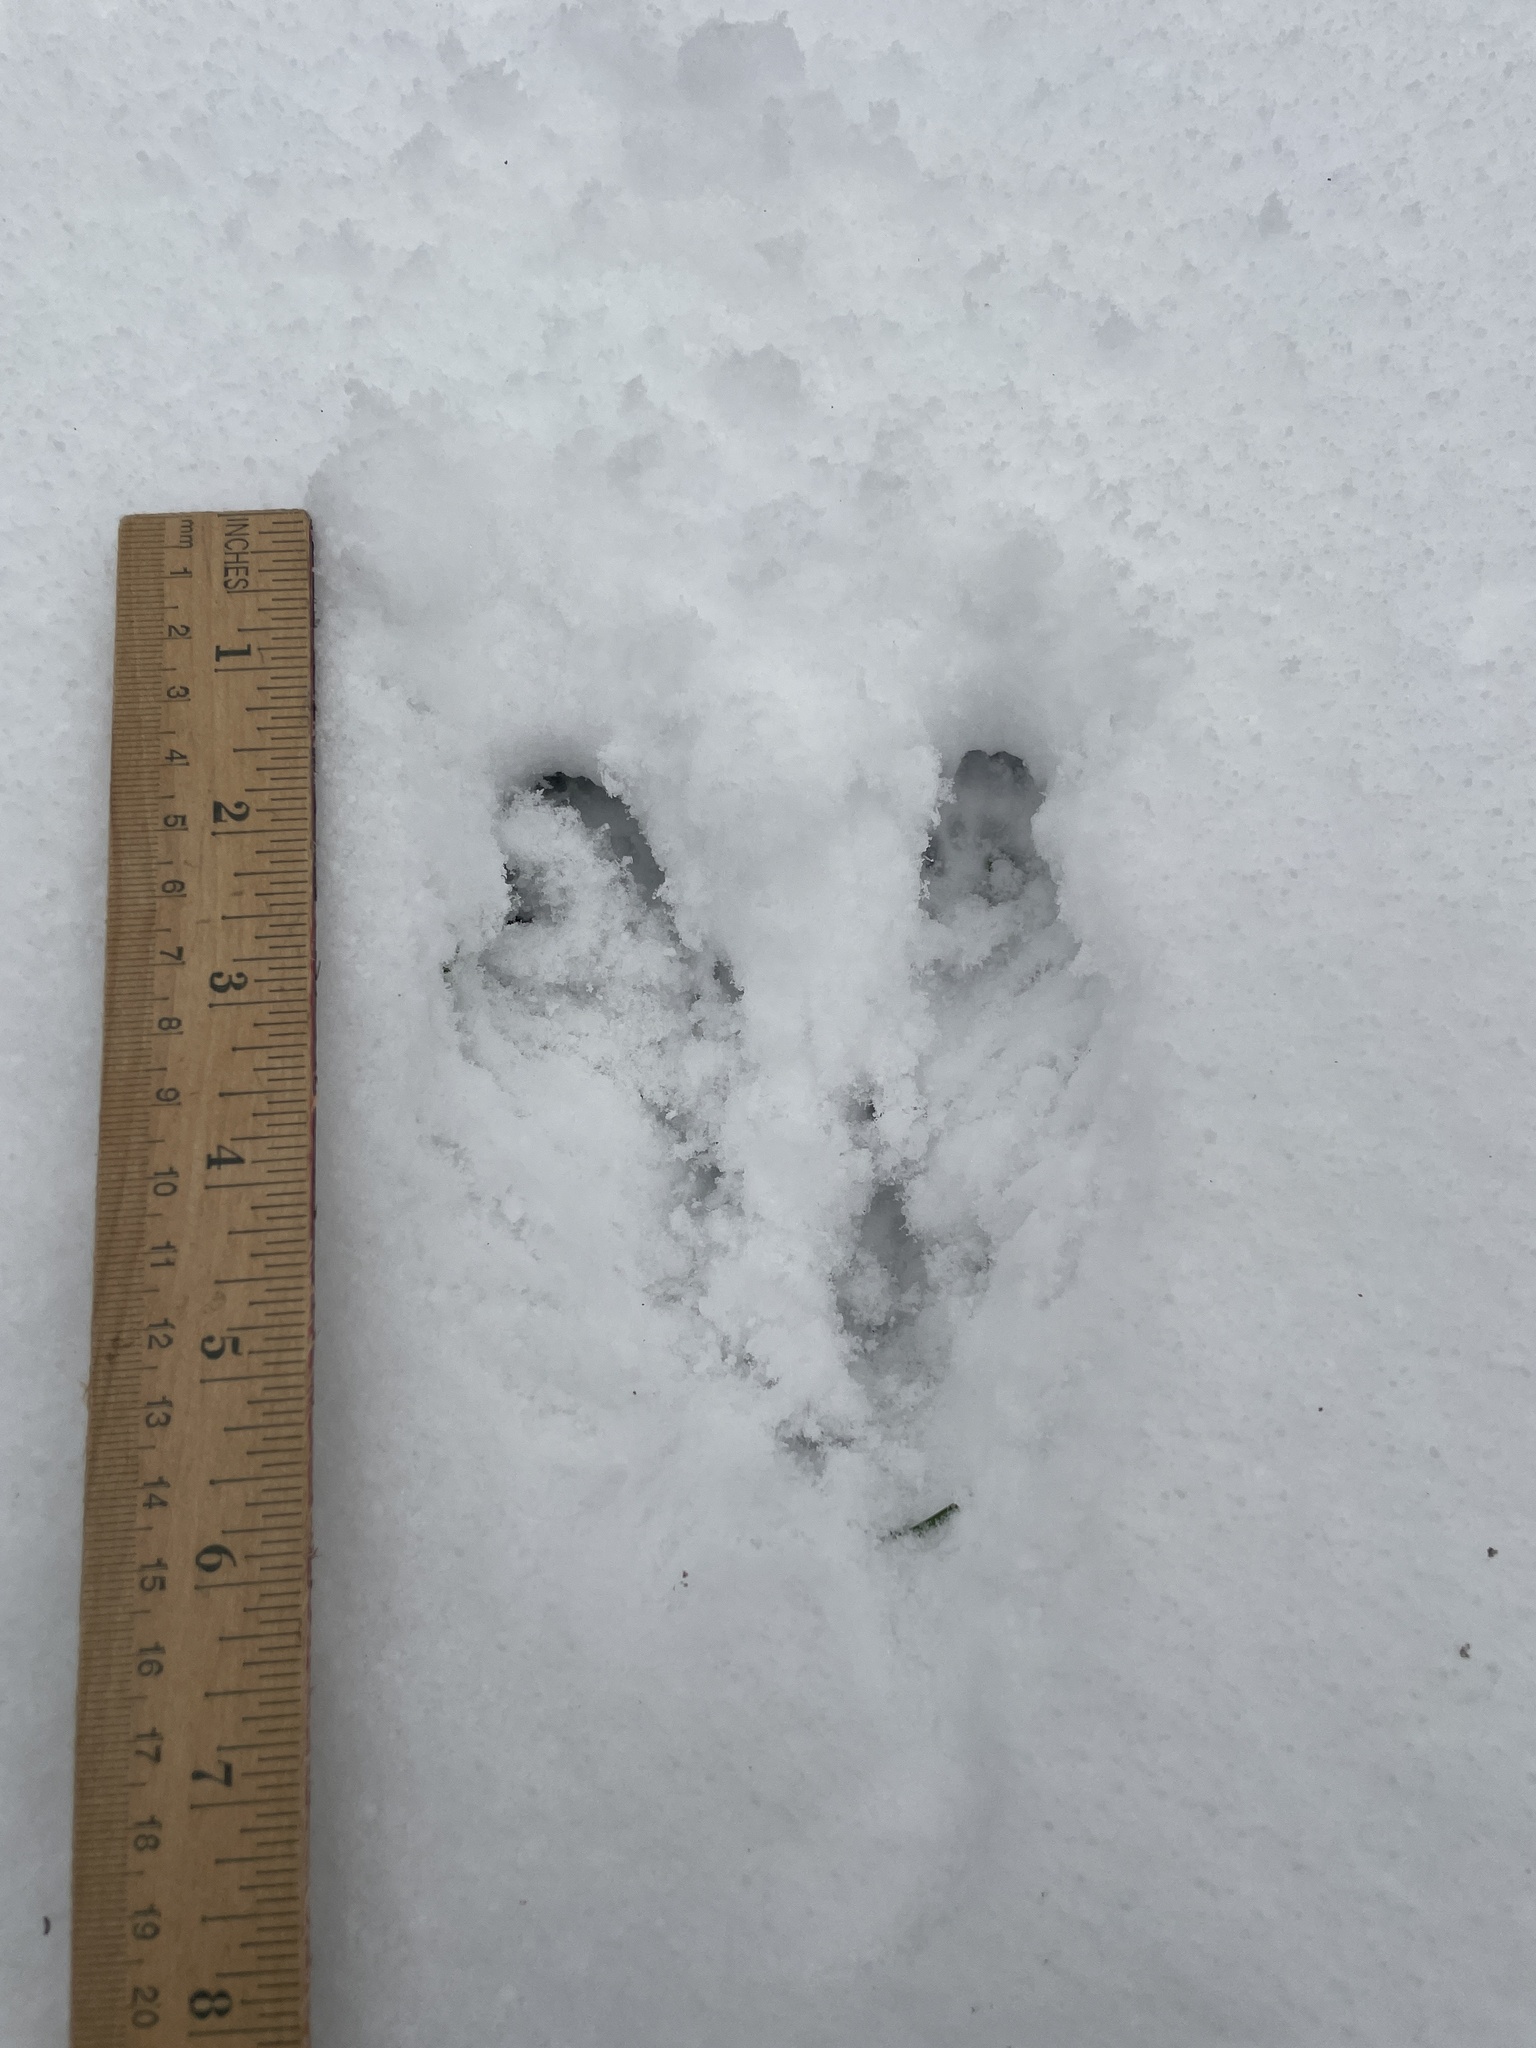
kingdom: Animalia
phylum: Chordata
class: Mammalia
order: Rodentia
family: Sciuridae
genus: Sciurus
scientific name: Sciurus carolinensis
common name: Eastern gray squirrel
